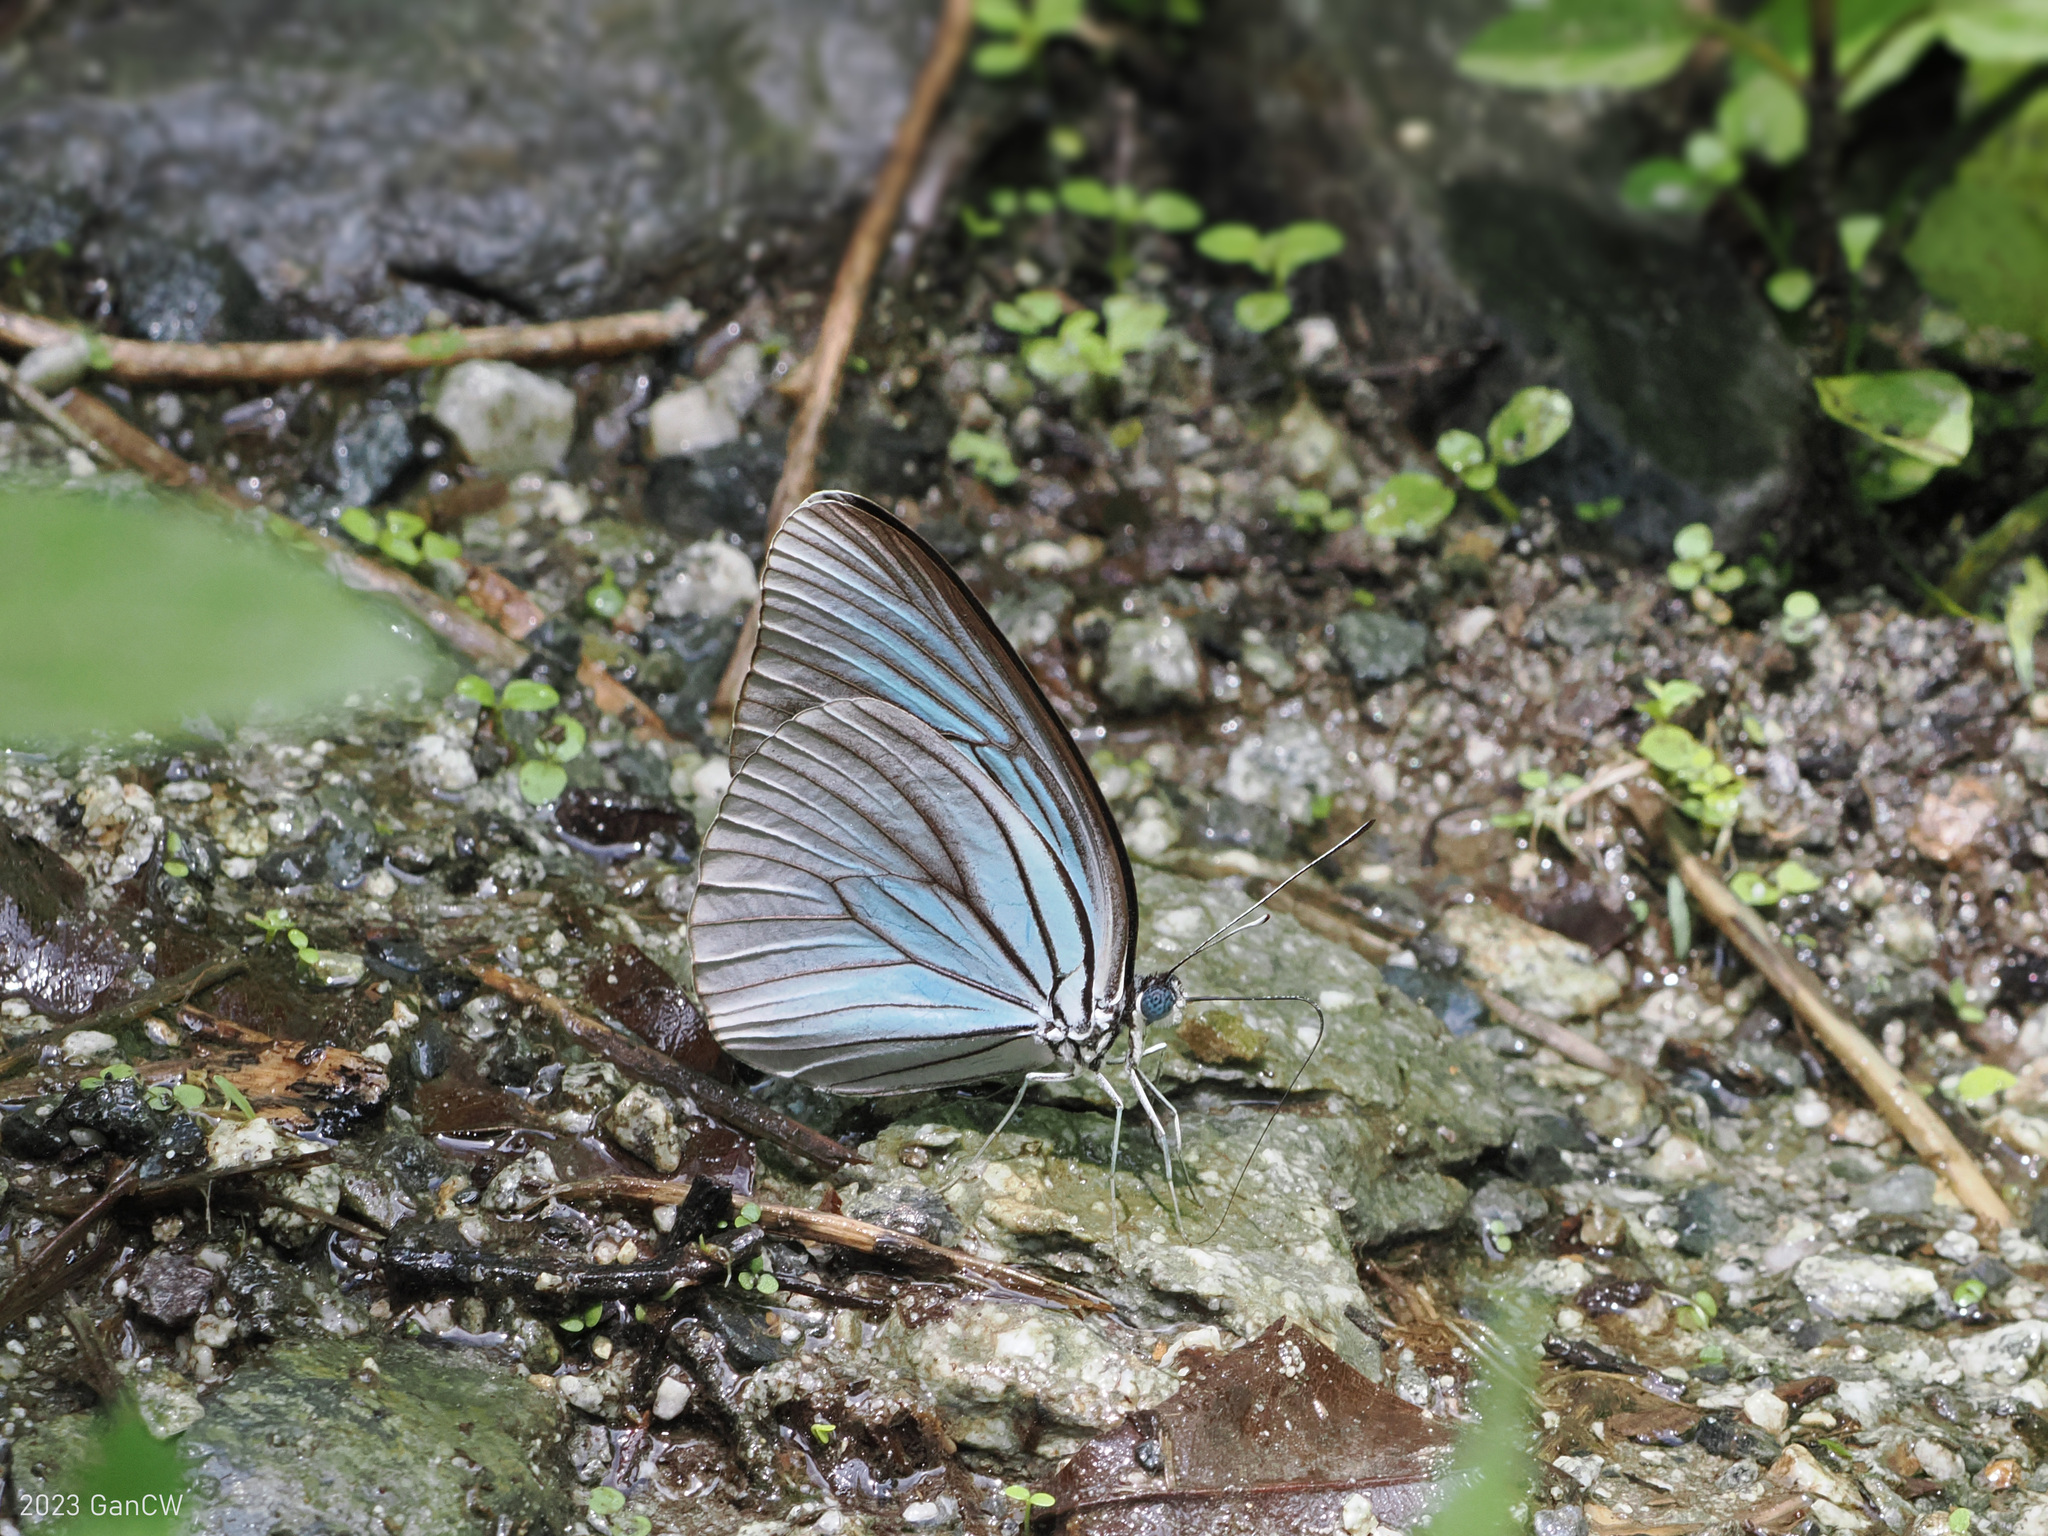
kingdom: Animalia
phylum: Arthropoda
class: Insecta
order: Lepidoptera
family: Pieridae
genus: Pareronia
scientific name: Pareronia tritaea
